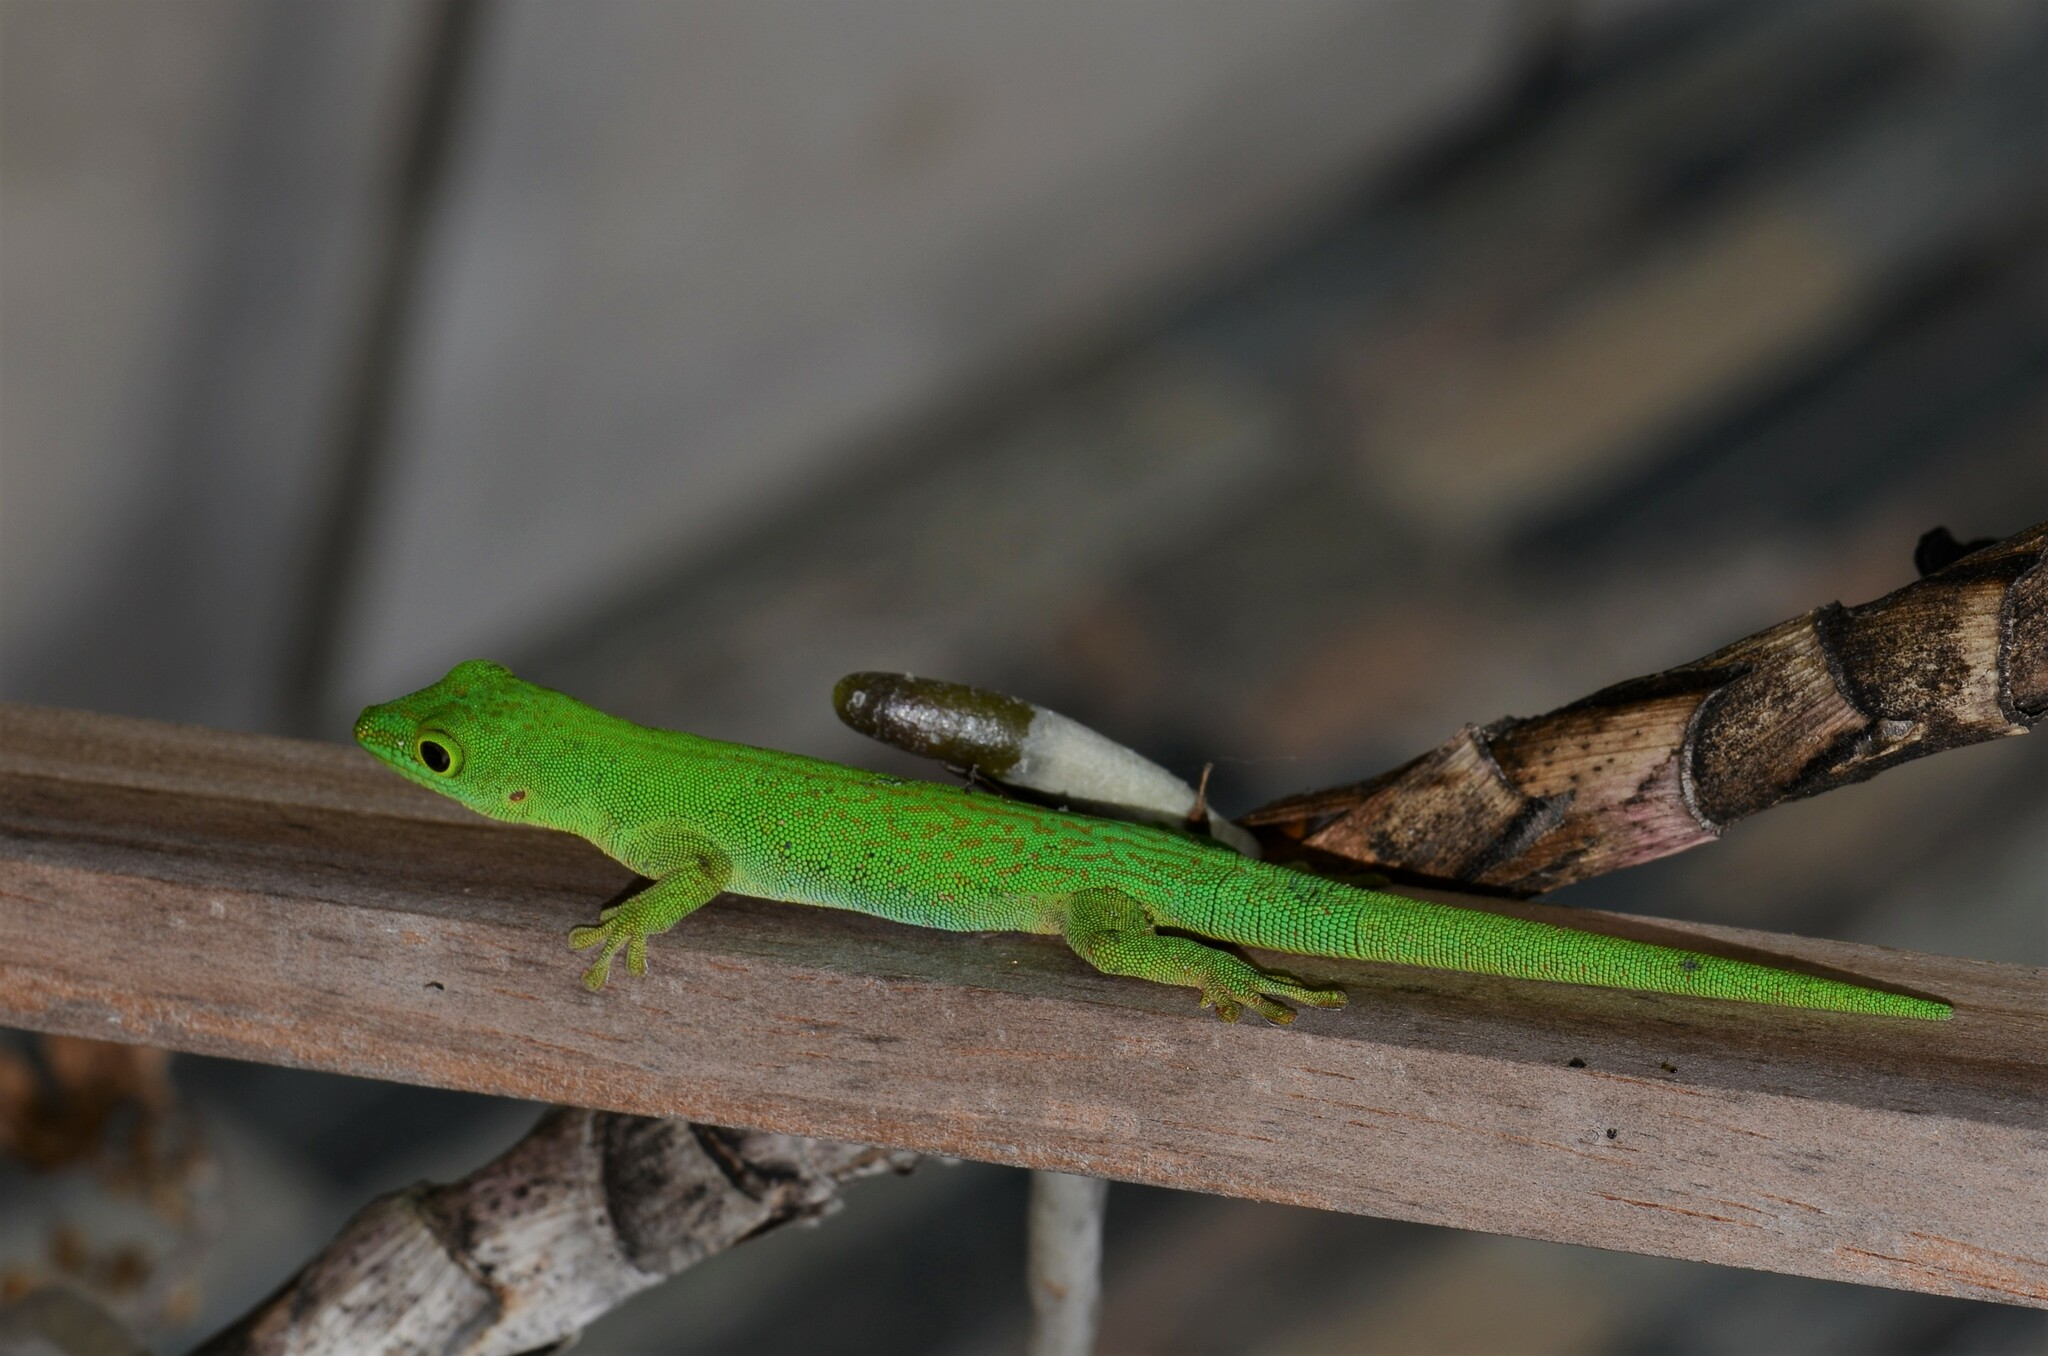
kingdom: Animalia
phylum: Chordata
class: Squamata
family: Gekkonidae
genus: Phelsuma
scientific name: Phelsuma sundbergi
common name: Seychelles giant day gecko
